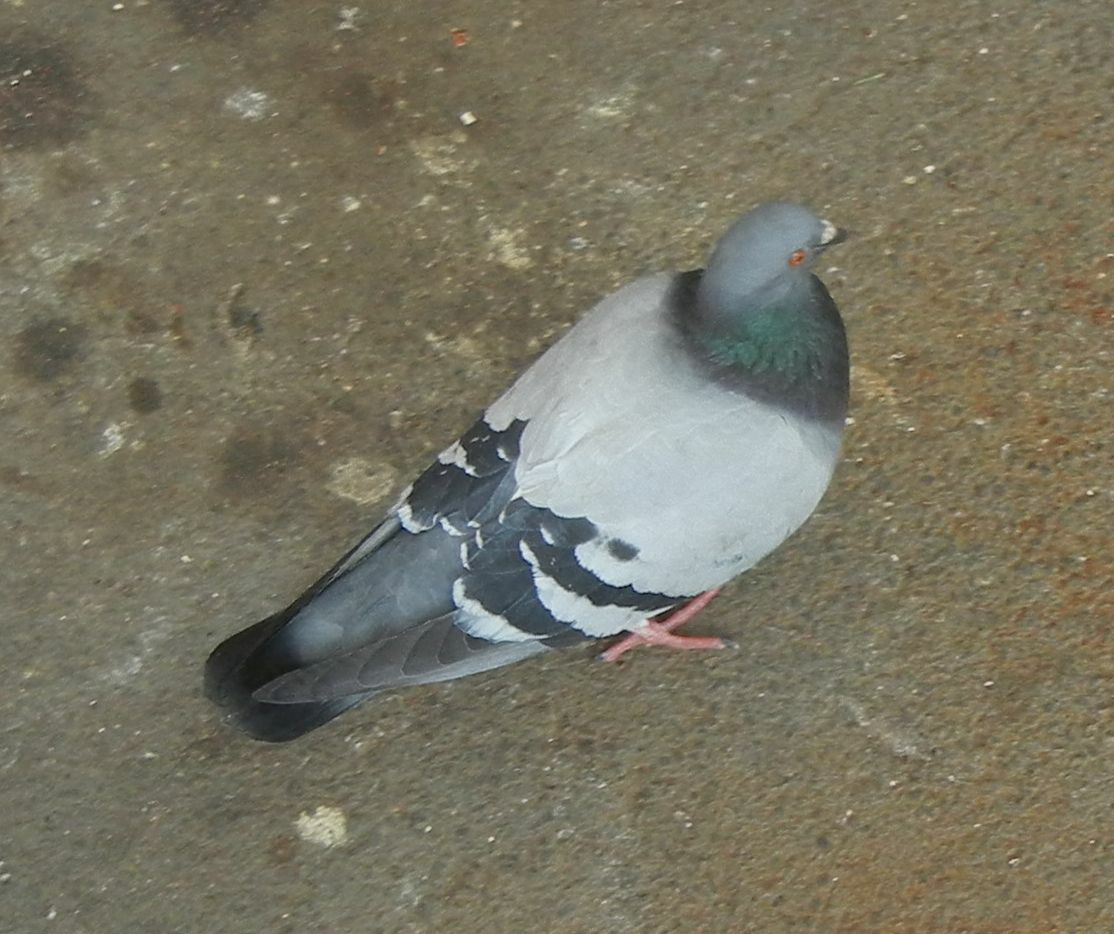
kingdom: Animalia
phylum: Chordata
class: Aves
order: Columbiformes
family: Columbidae
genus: Columba
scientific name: Columba livia
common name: Rock pigeon
